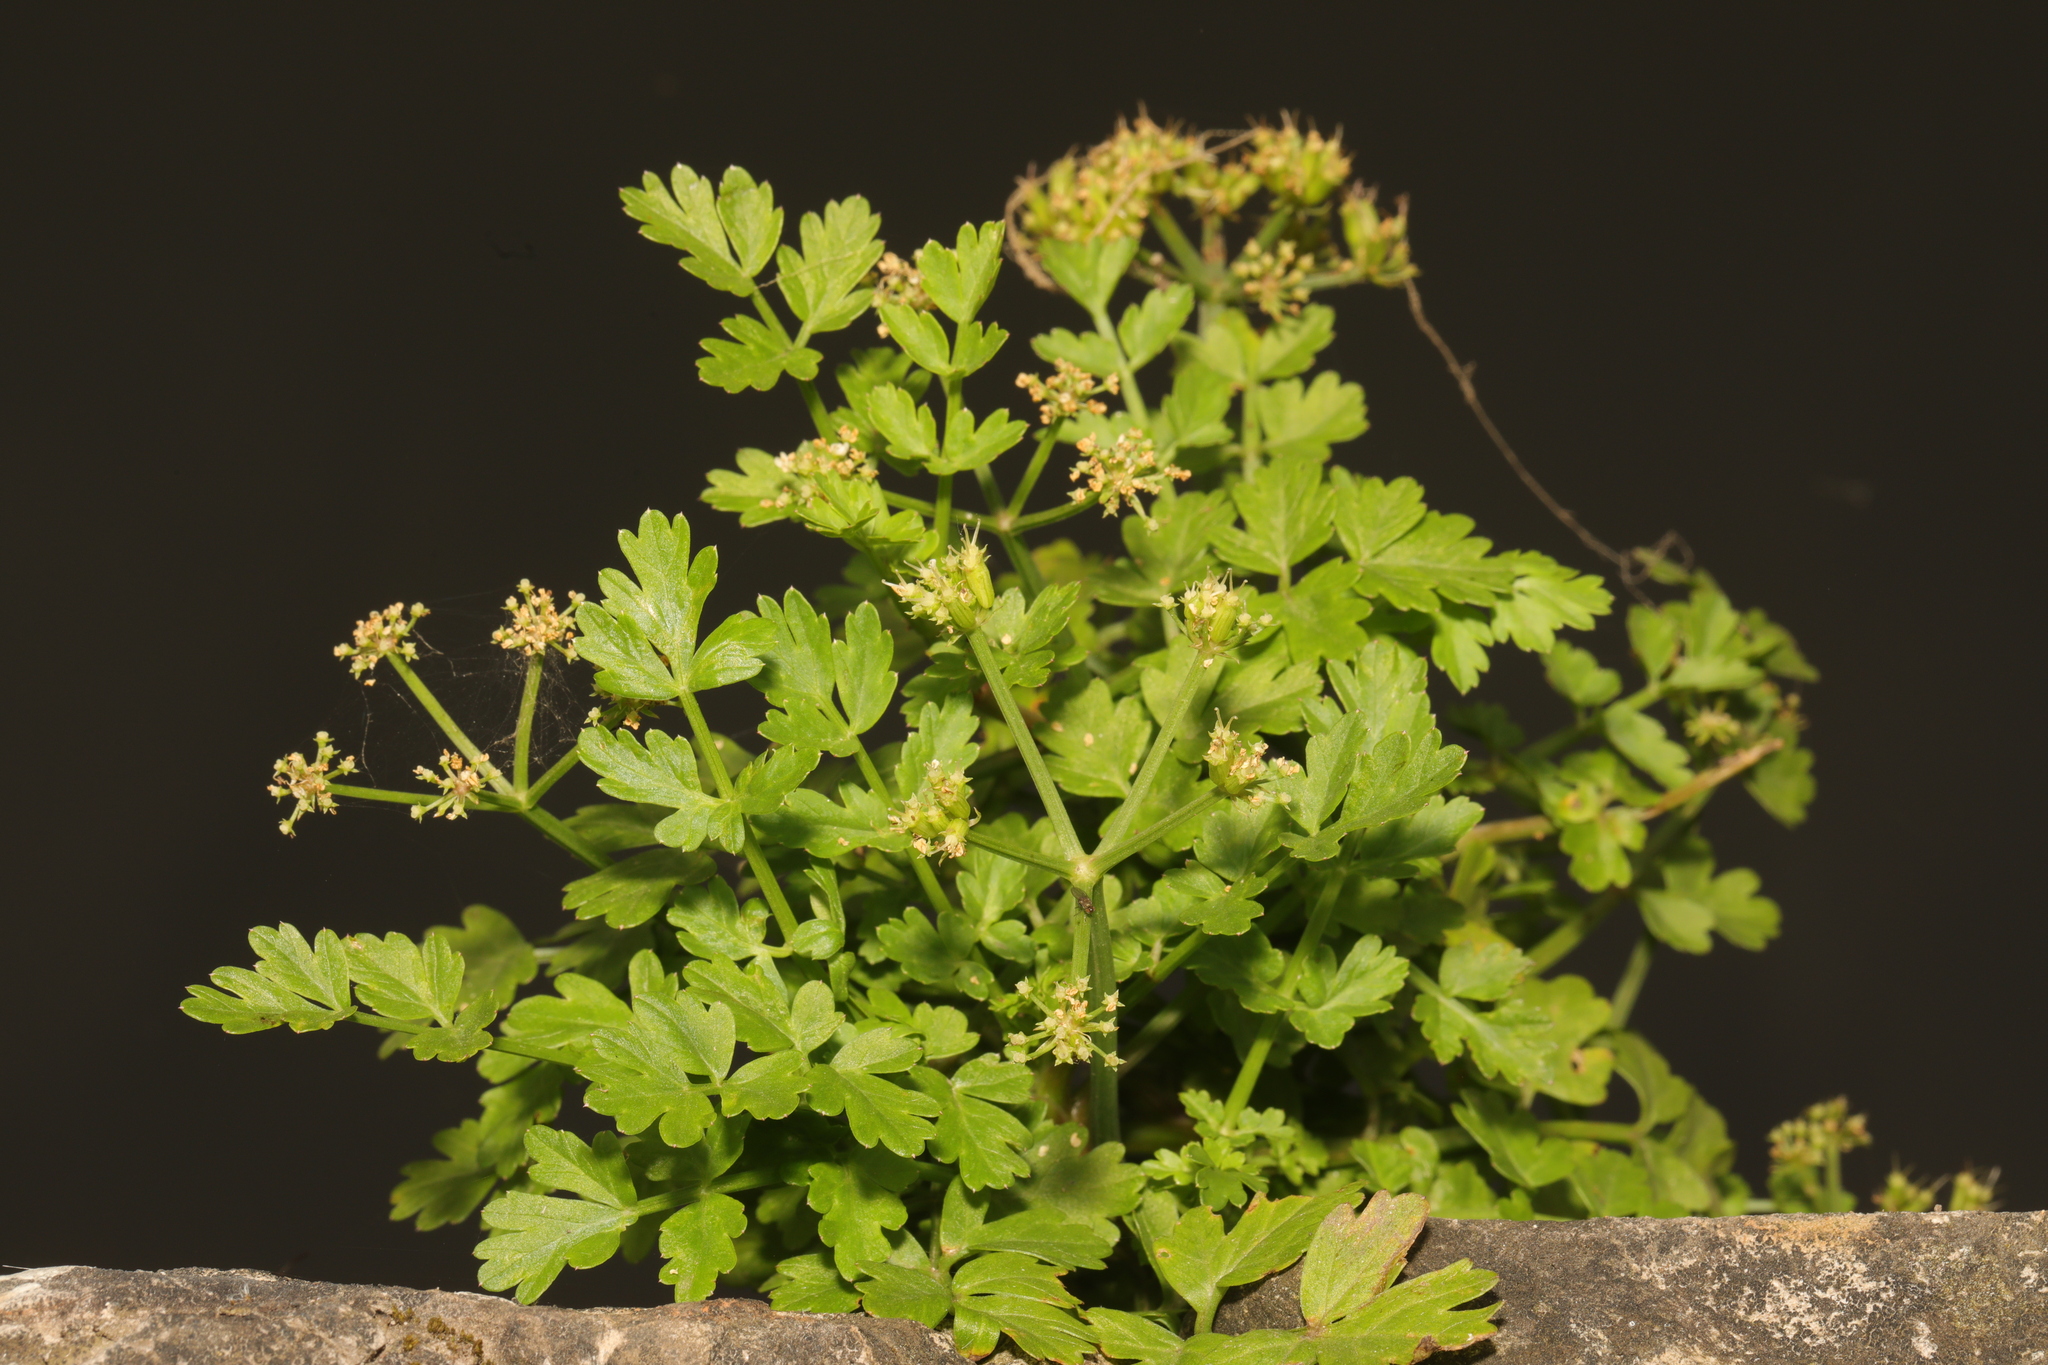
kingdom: Plantae
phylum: Tracheophyta
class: Magnoliopsida
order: Apiales
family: Apiaceae
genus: Oenanthe
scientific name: Oenanthe crocata
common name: Hemlock water-dropwort
